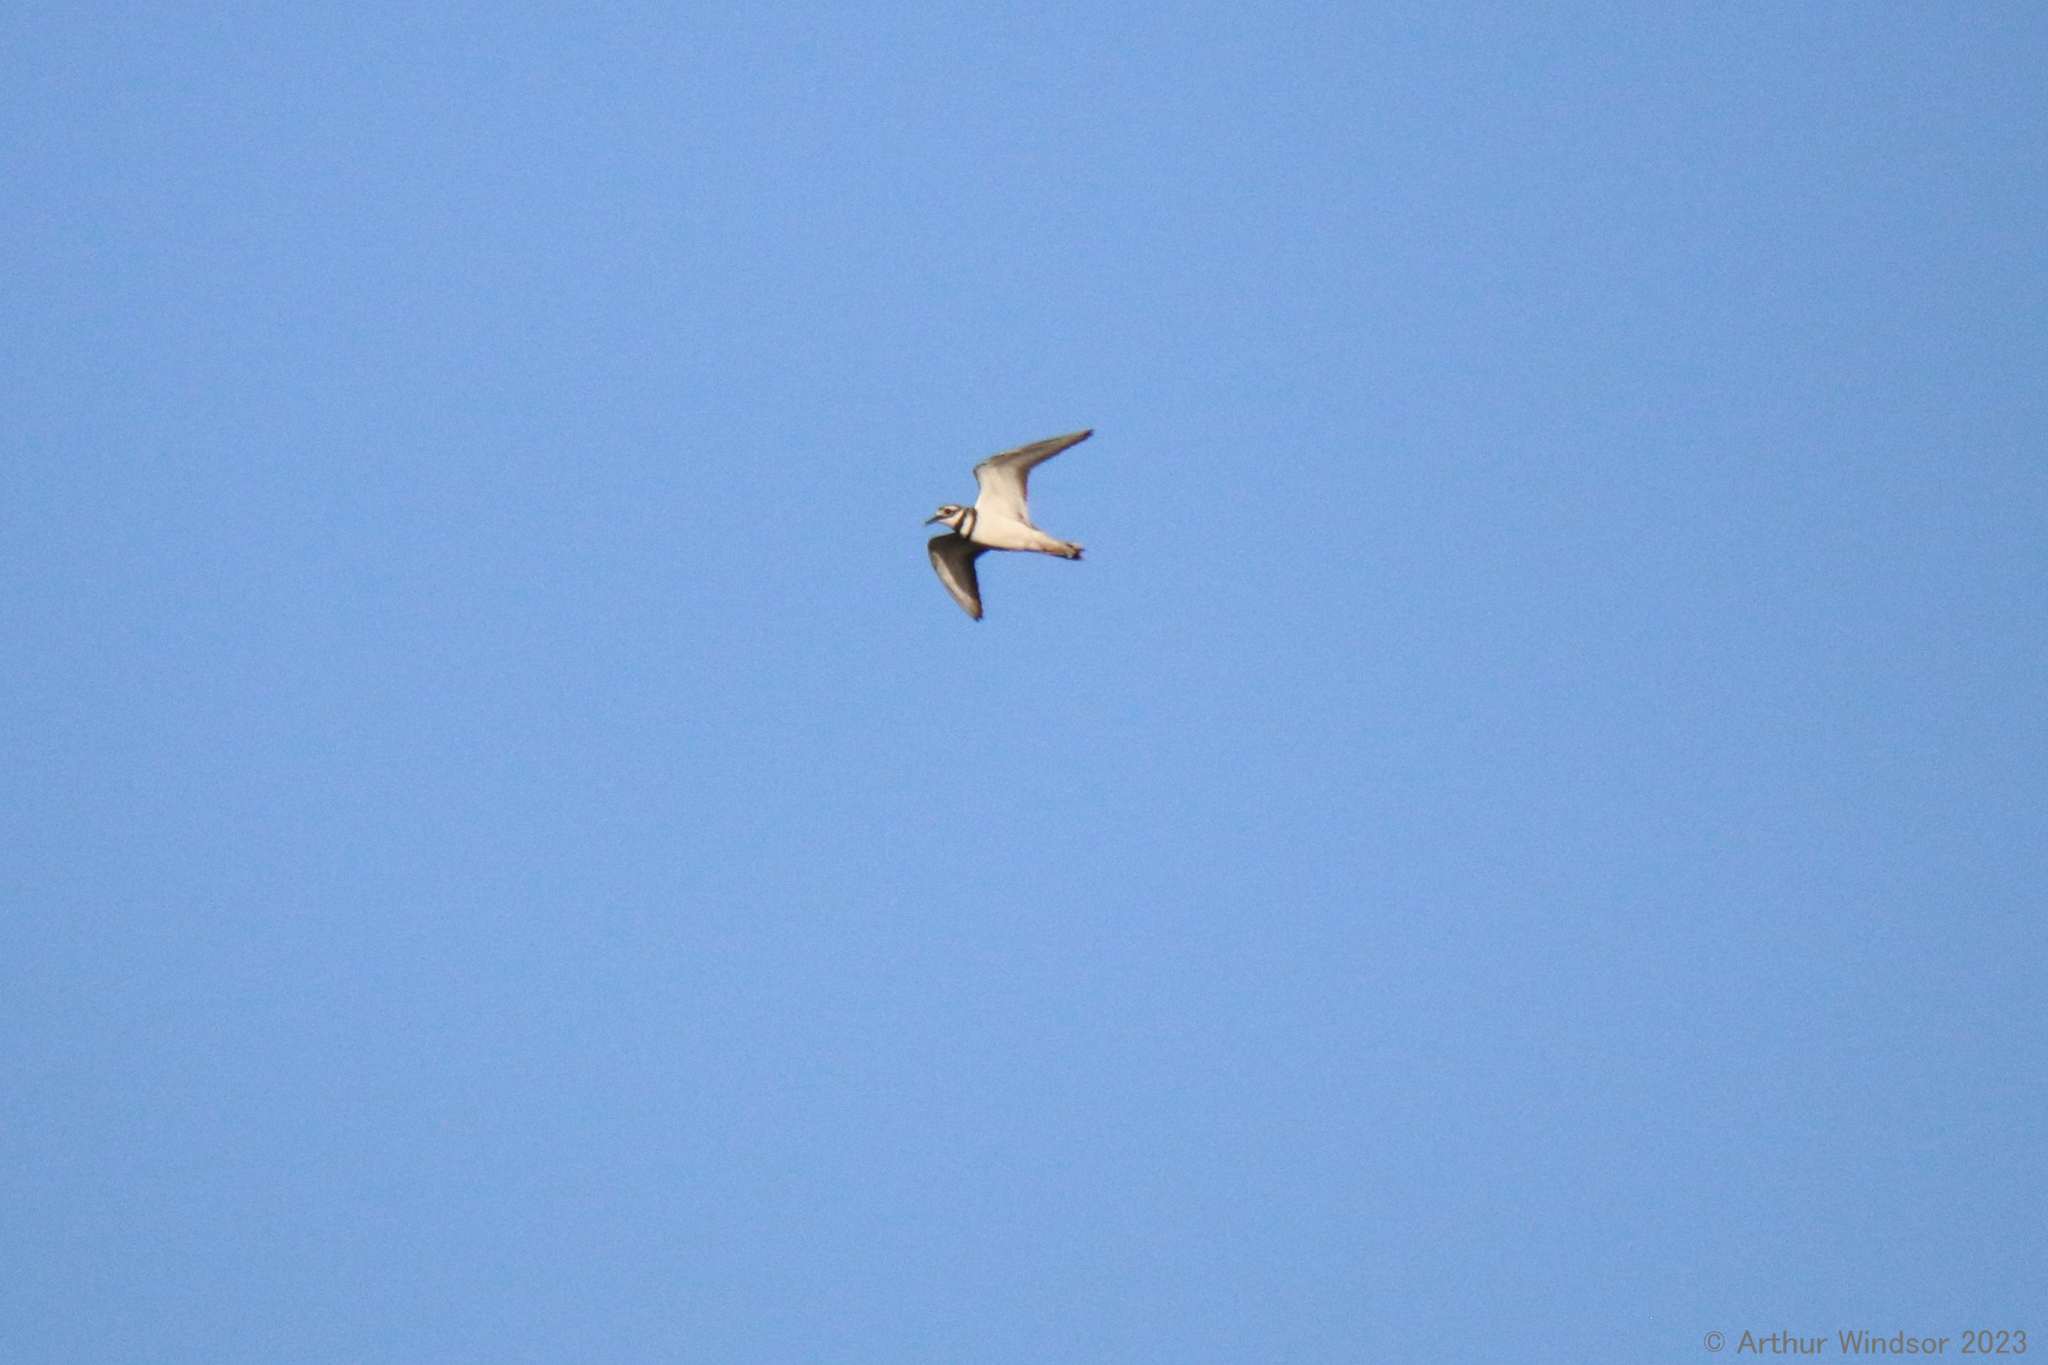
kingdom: Animalia
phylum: Chordata
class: Aves
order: Charadriiformes
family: Charadriidae
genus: Charadrius
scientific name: Charadrius vociferus
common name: Killdeer
